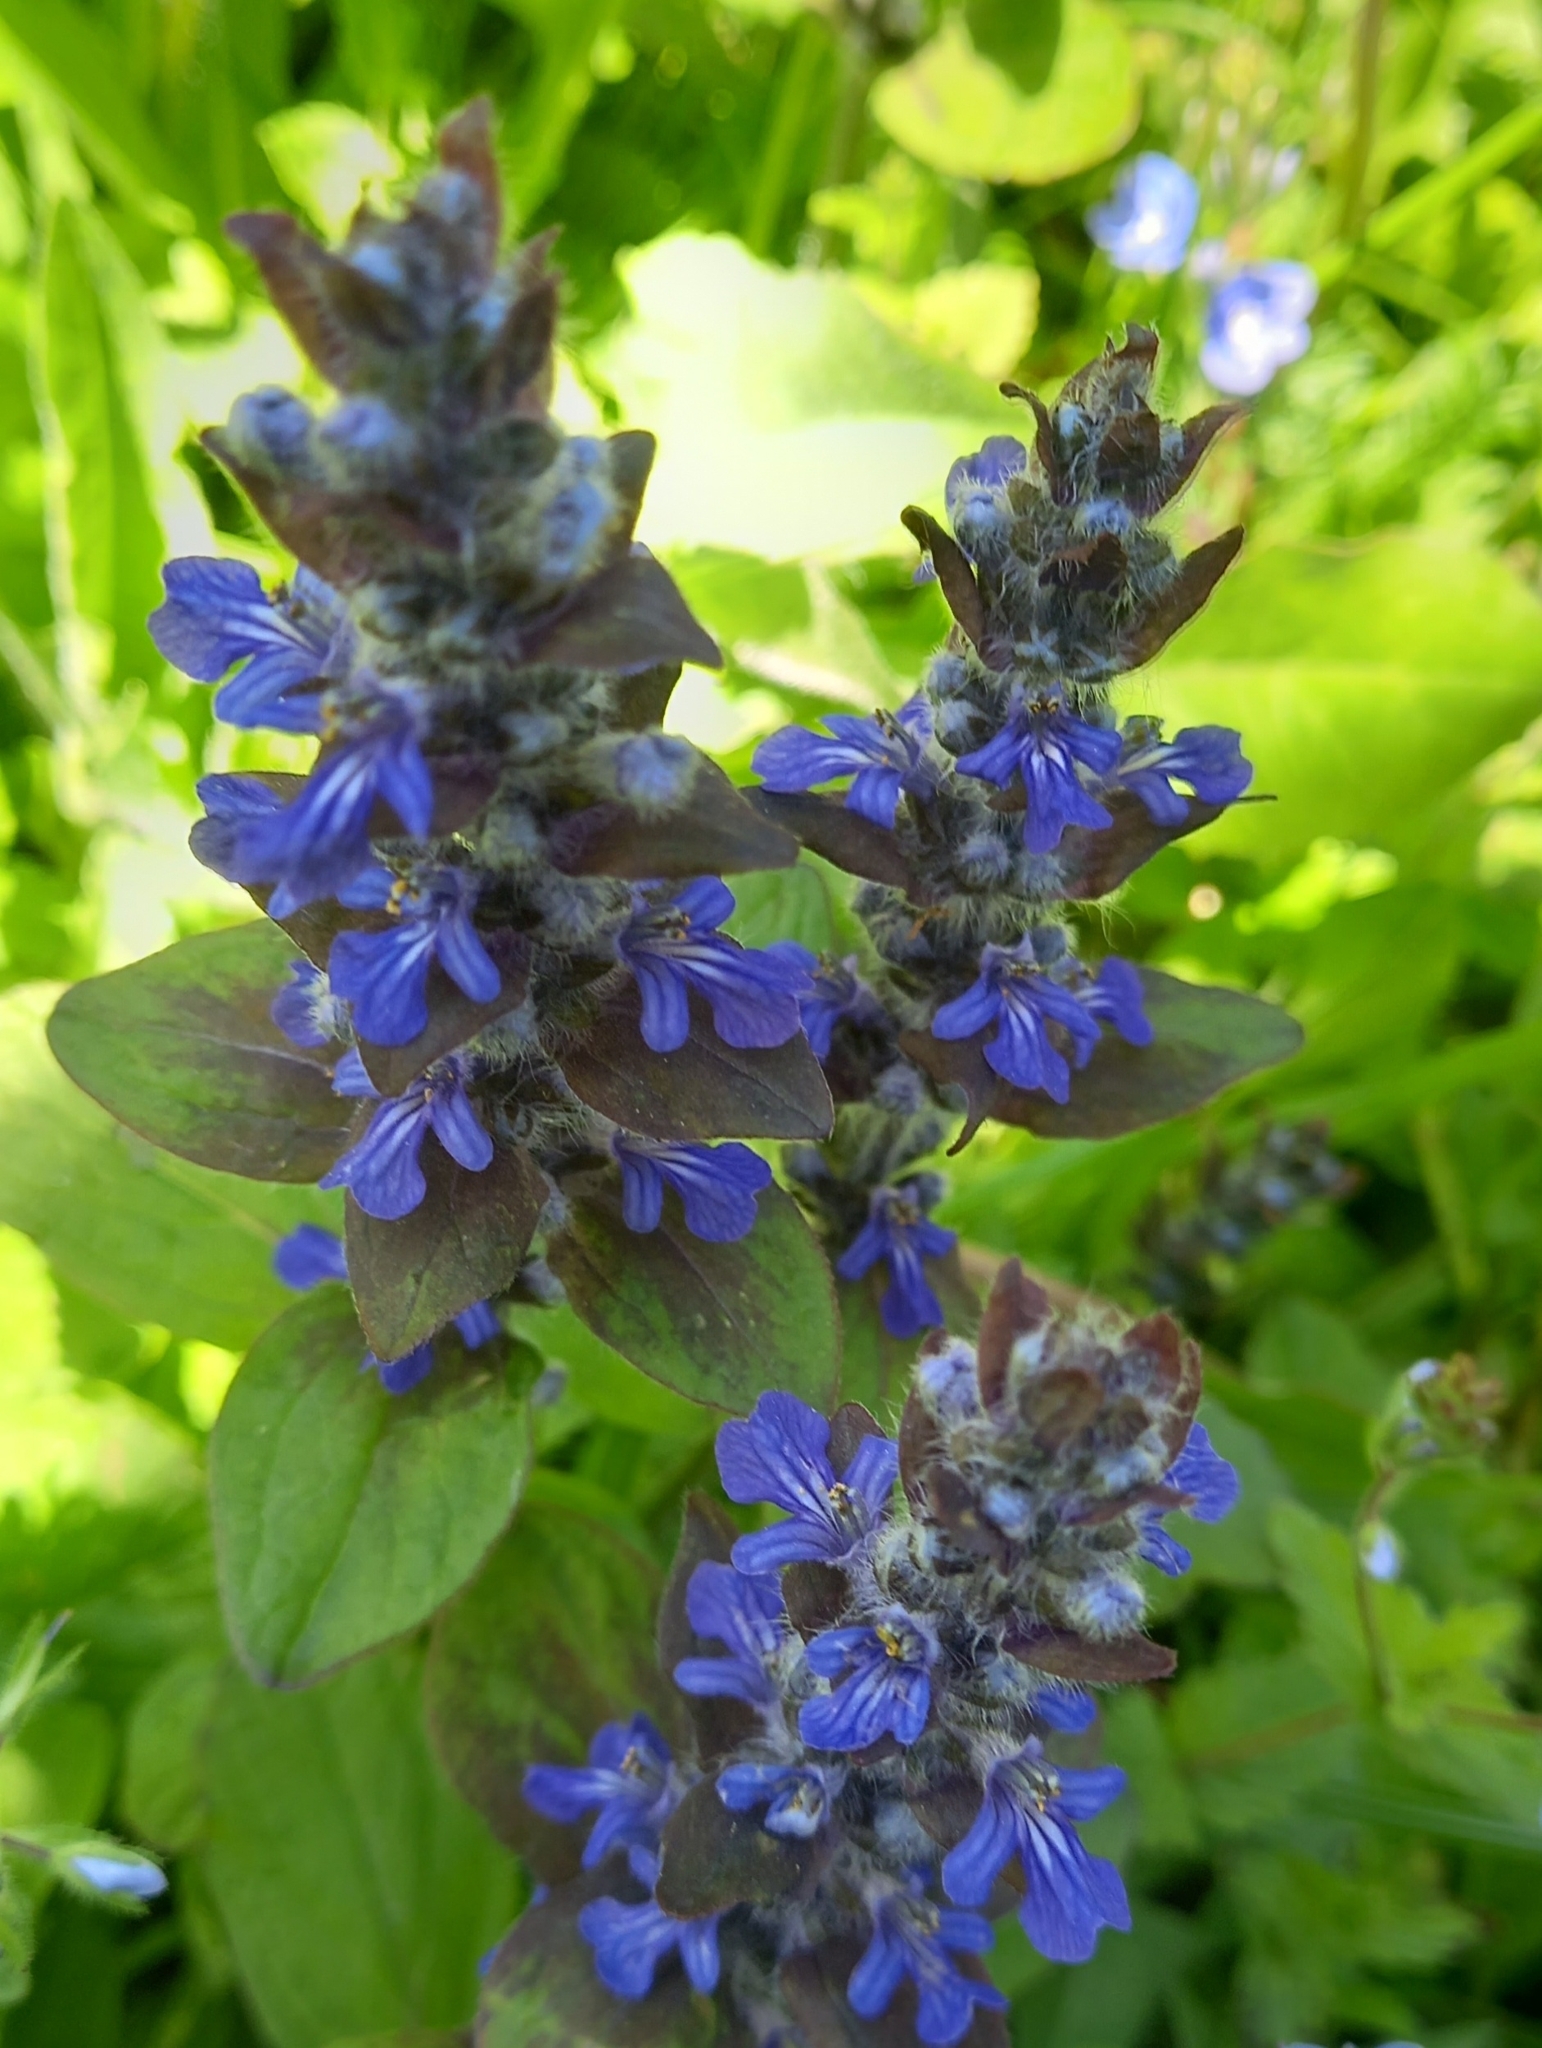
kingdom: Plantae
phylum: Tracheophyta
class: Magnoliopsida
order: Lamiales
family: Lamiaceae
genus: Ajuga
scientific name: Ajuga reptans
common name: Bugle
